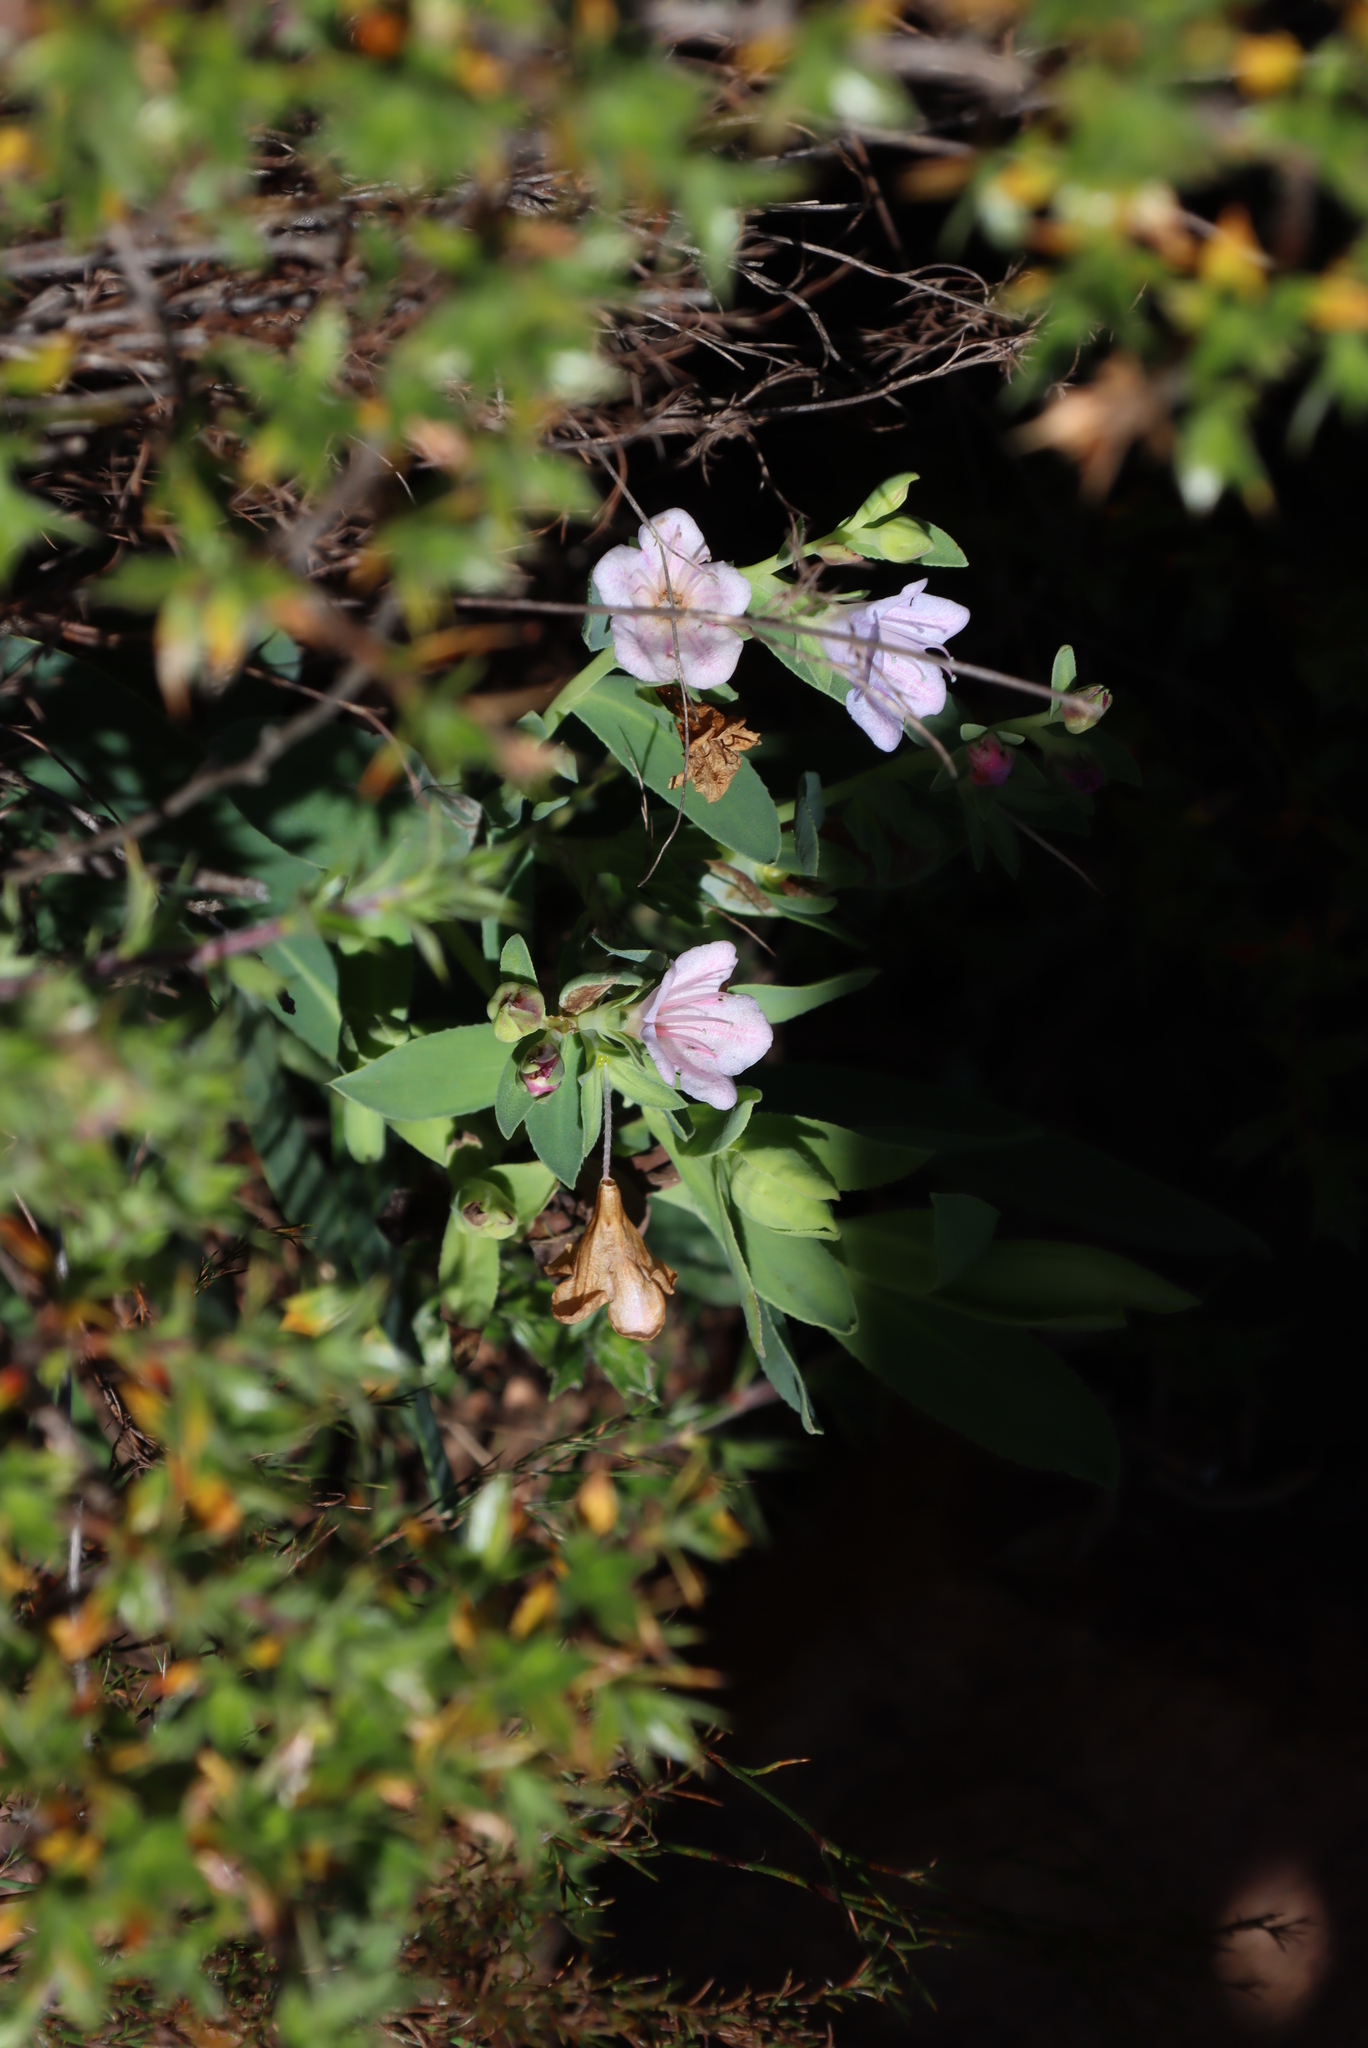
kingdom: Plantae
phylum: Tracheophyta
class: Magnoliopsida
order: Boraginales
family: Boraginaceae
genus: Lobostemon
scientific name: Lobostemon glaucophyllus
